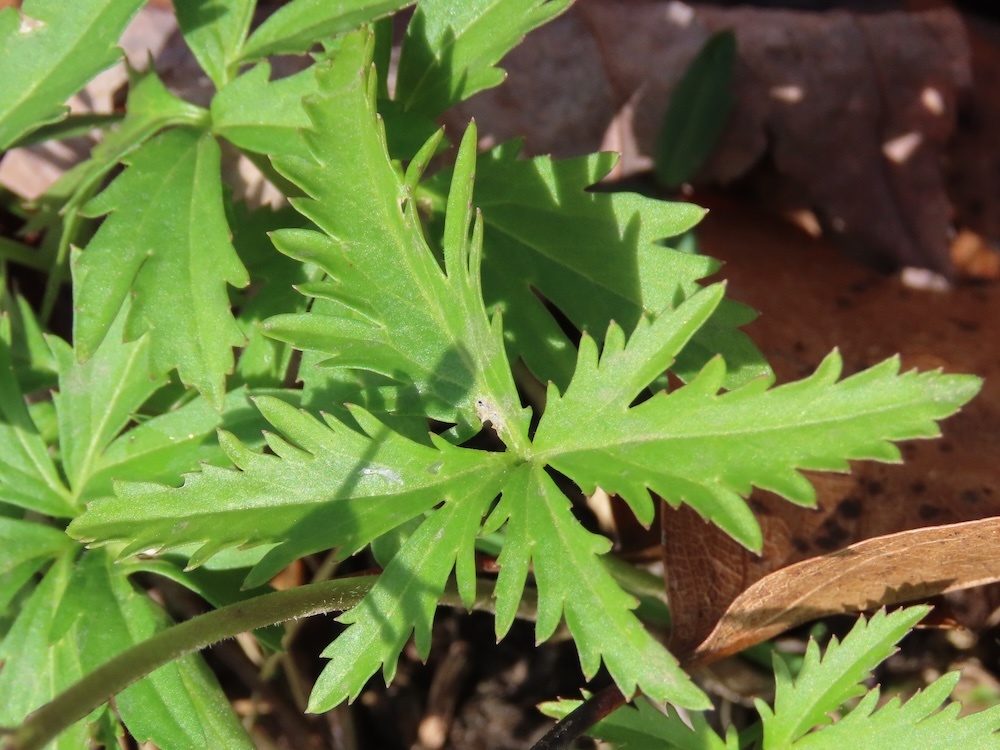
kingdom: Plantae
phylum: Tracheophyta
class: Magnoliopsida
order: Brassicales
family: Brassicaceae
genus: Cardamine
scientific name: Cardamine concatenata
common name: Cut-leaf toothcup
